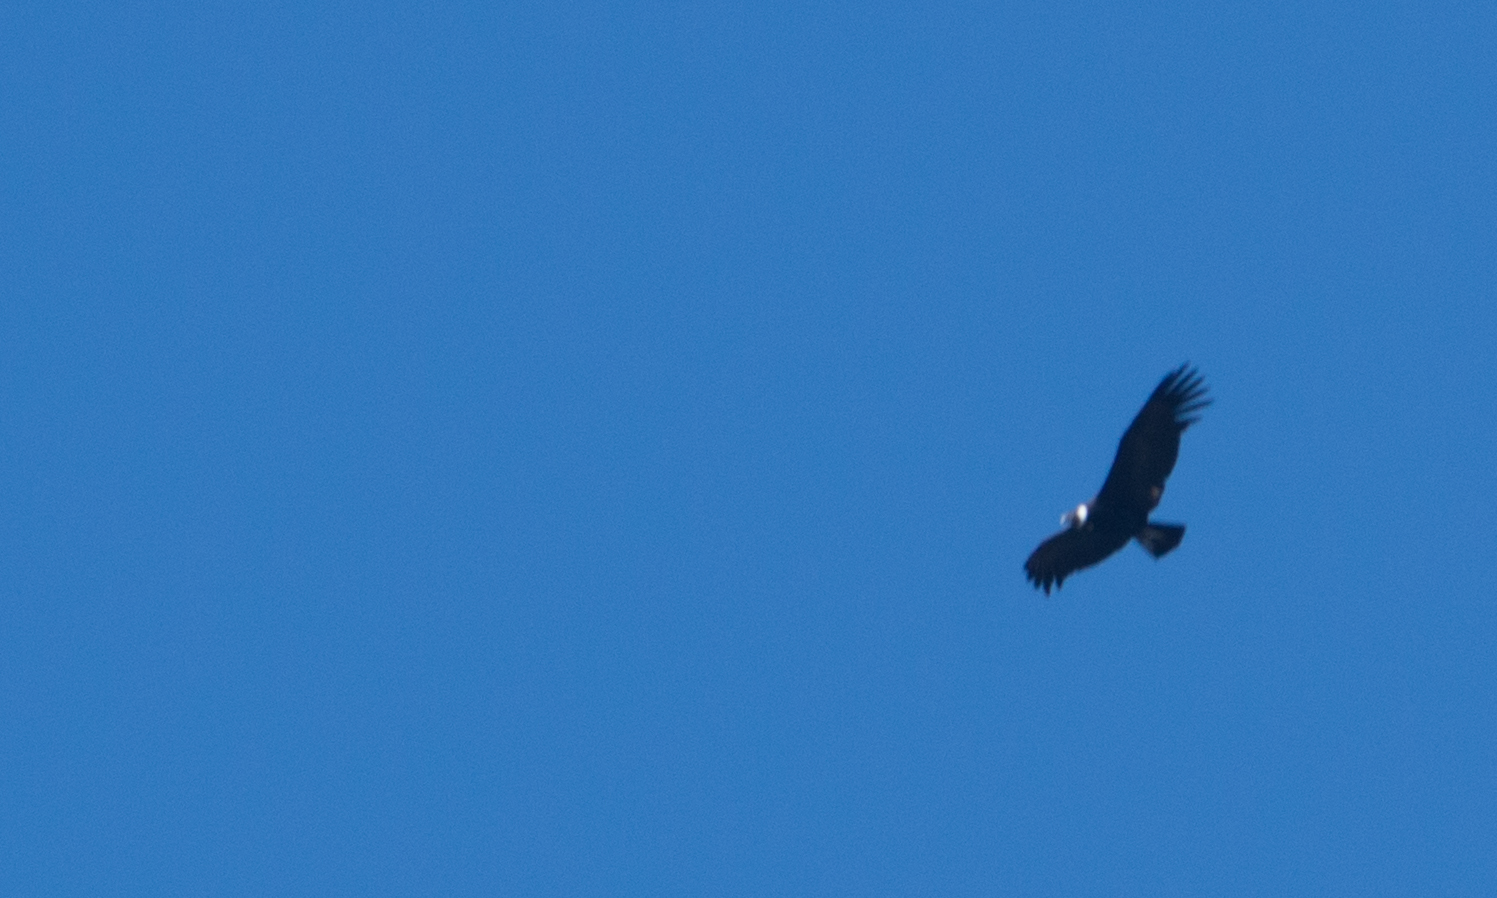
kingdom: Animalia
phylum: Chordata
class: Aves
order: Accipitriformes
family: Cathartidae
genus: Vultur
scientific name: Vultur gryphus
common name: Andean condor
